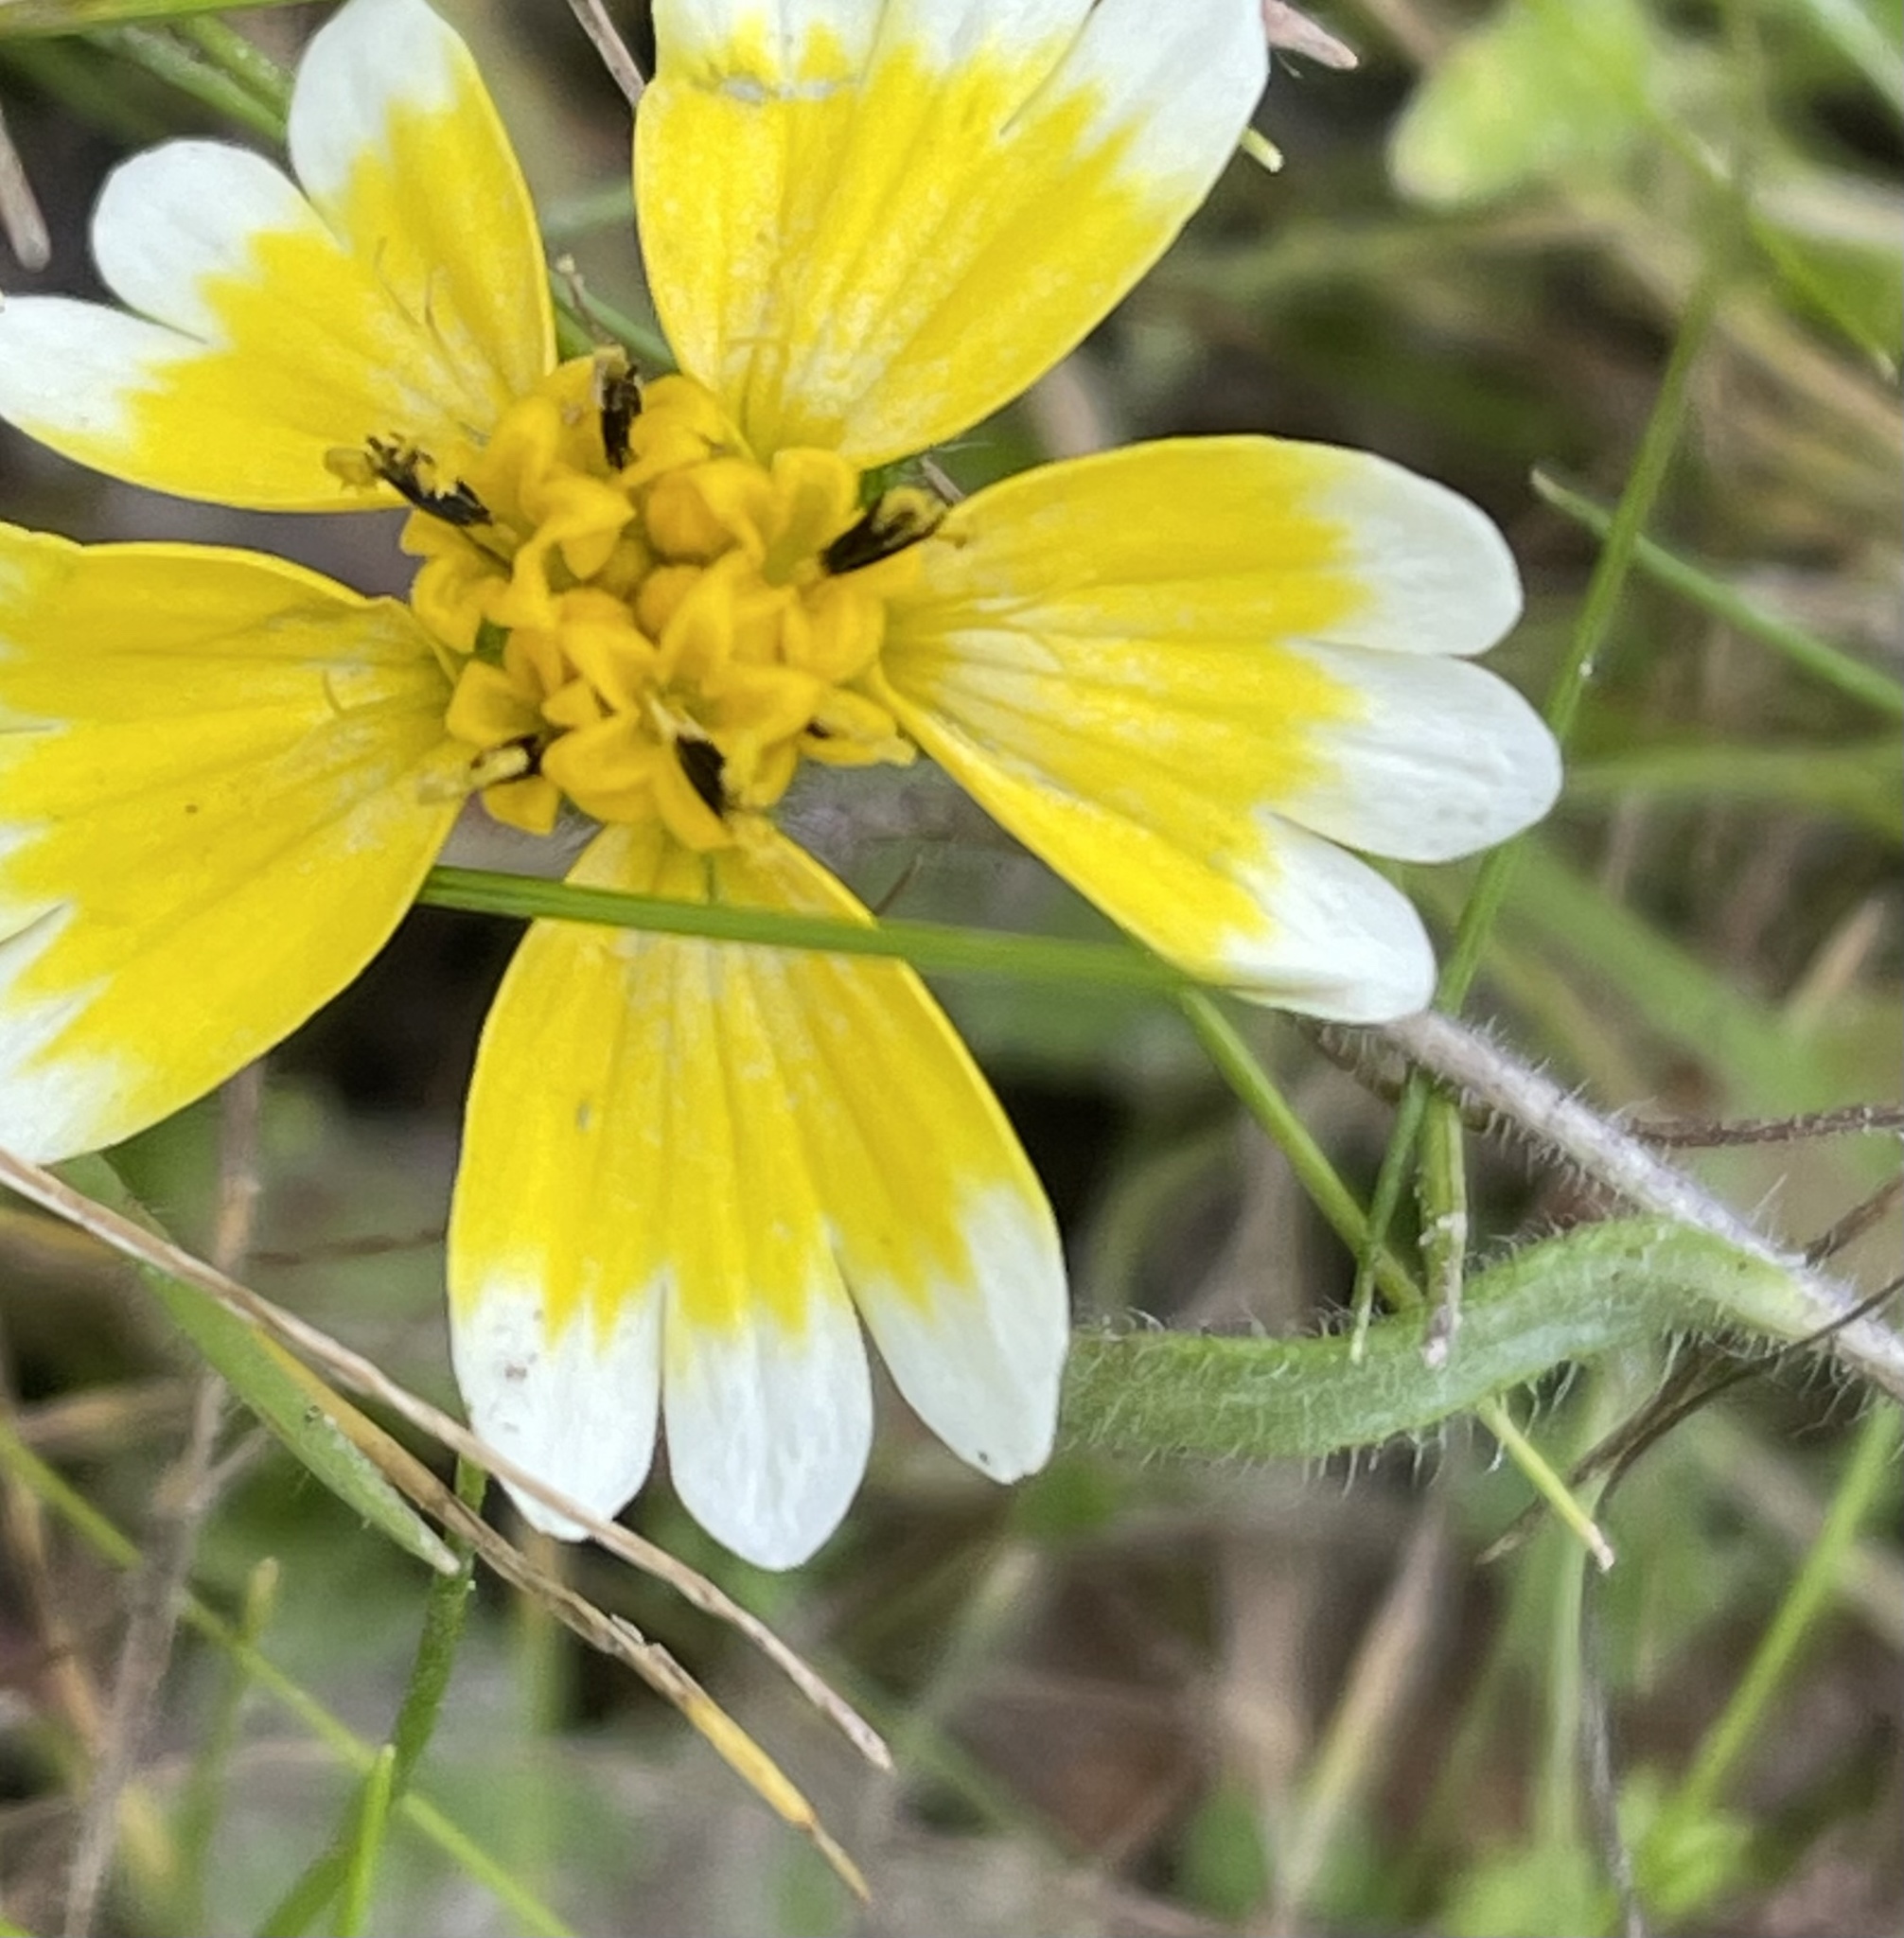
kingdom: Plantae
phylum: Tracheophyta
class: Magnoliopsida
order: Asterales
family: Asteraceae
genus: Layia
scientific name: Layia platyglossa
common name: Tidy-tips
